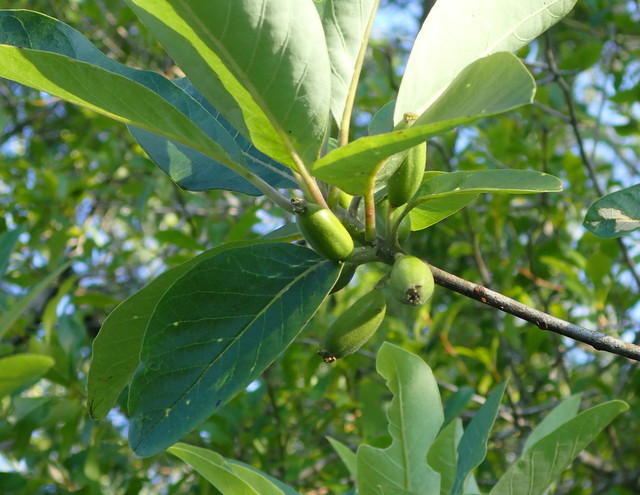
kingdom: Plantae
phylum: Tracheophyta
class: Magnoliopsida
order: Cornales
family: Nyssaceae
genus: Nyssa
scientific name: Nyssa ogeche
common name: Ogeechee tupelo
